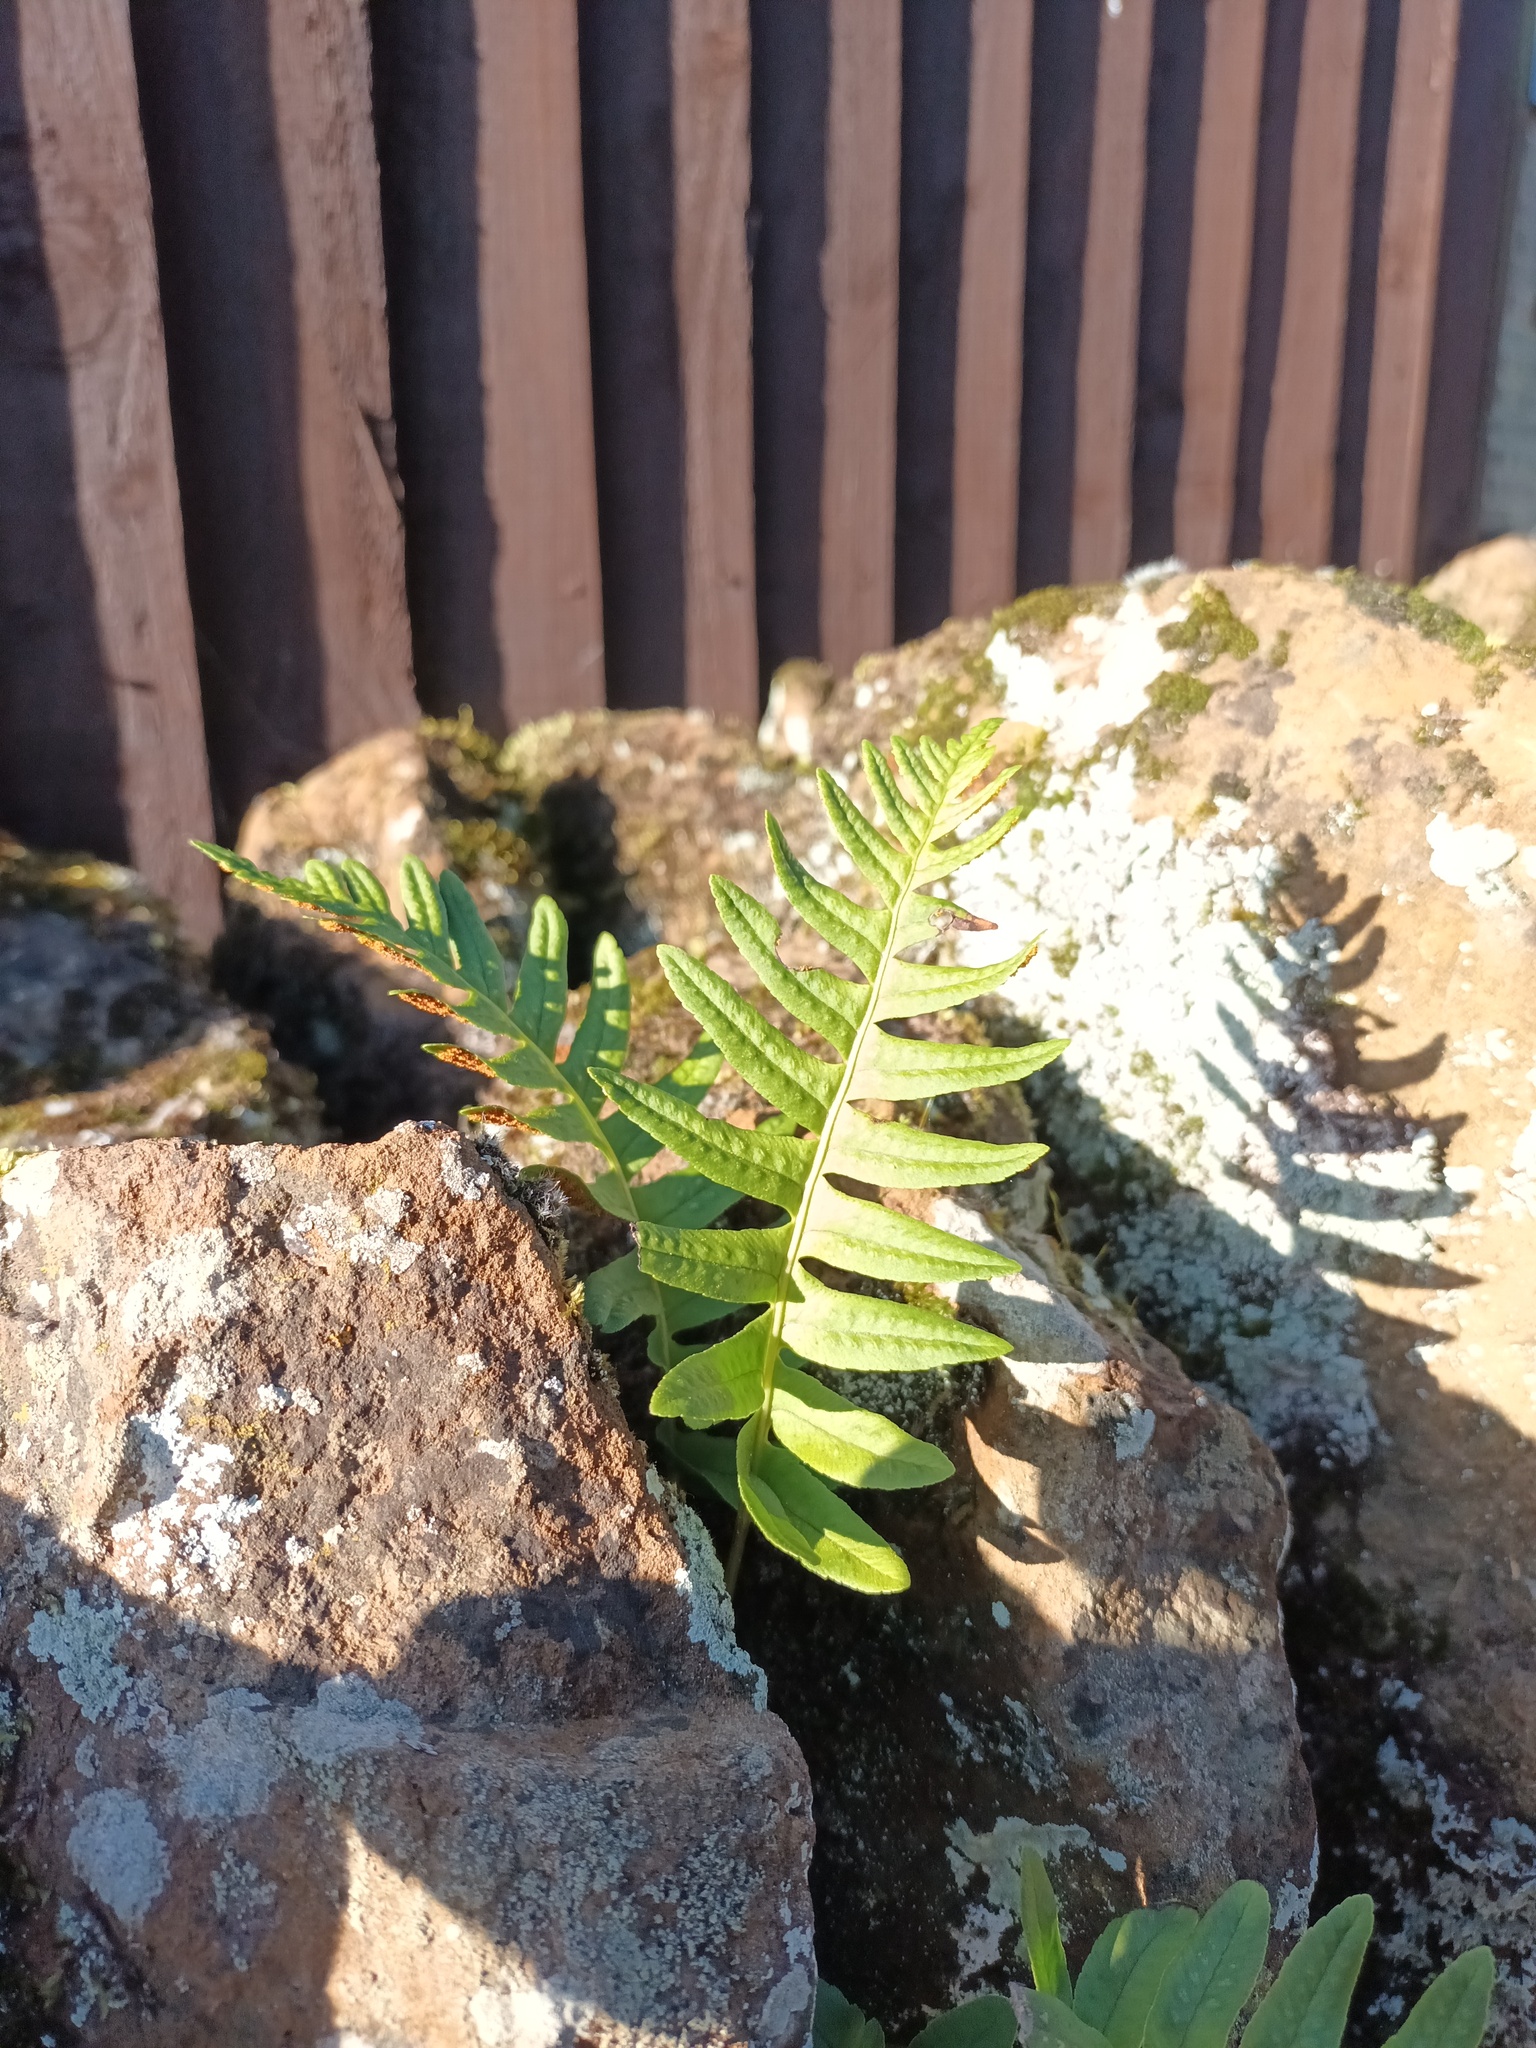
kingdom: Plantae
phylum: Tracheophyta
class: Polypodiopsida
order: Polypodiales
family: Polypodiaceae
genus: Polypodium
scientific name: Polypodium
